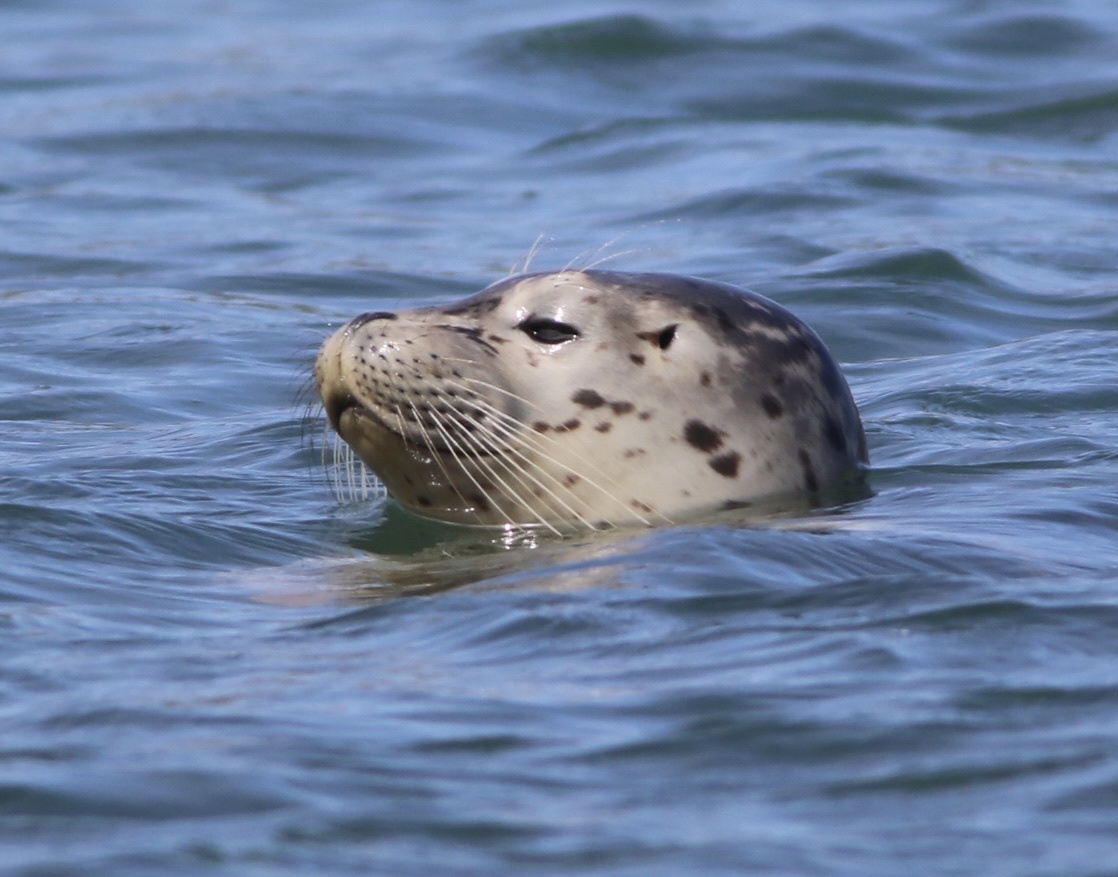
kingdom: Animalia
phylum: Chordata
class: Mammalia
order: Carnivora
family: Phocidae
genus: Phoca
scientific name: Phoca vitulina
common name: Harbor seal
